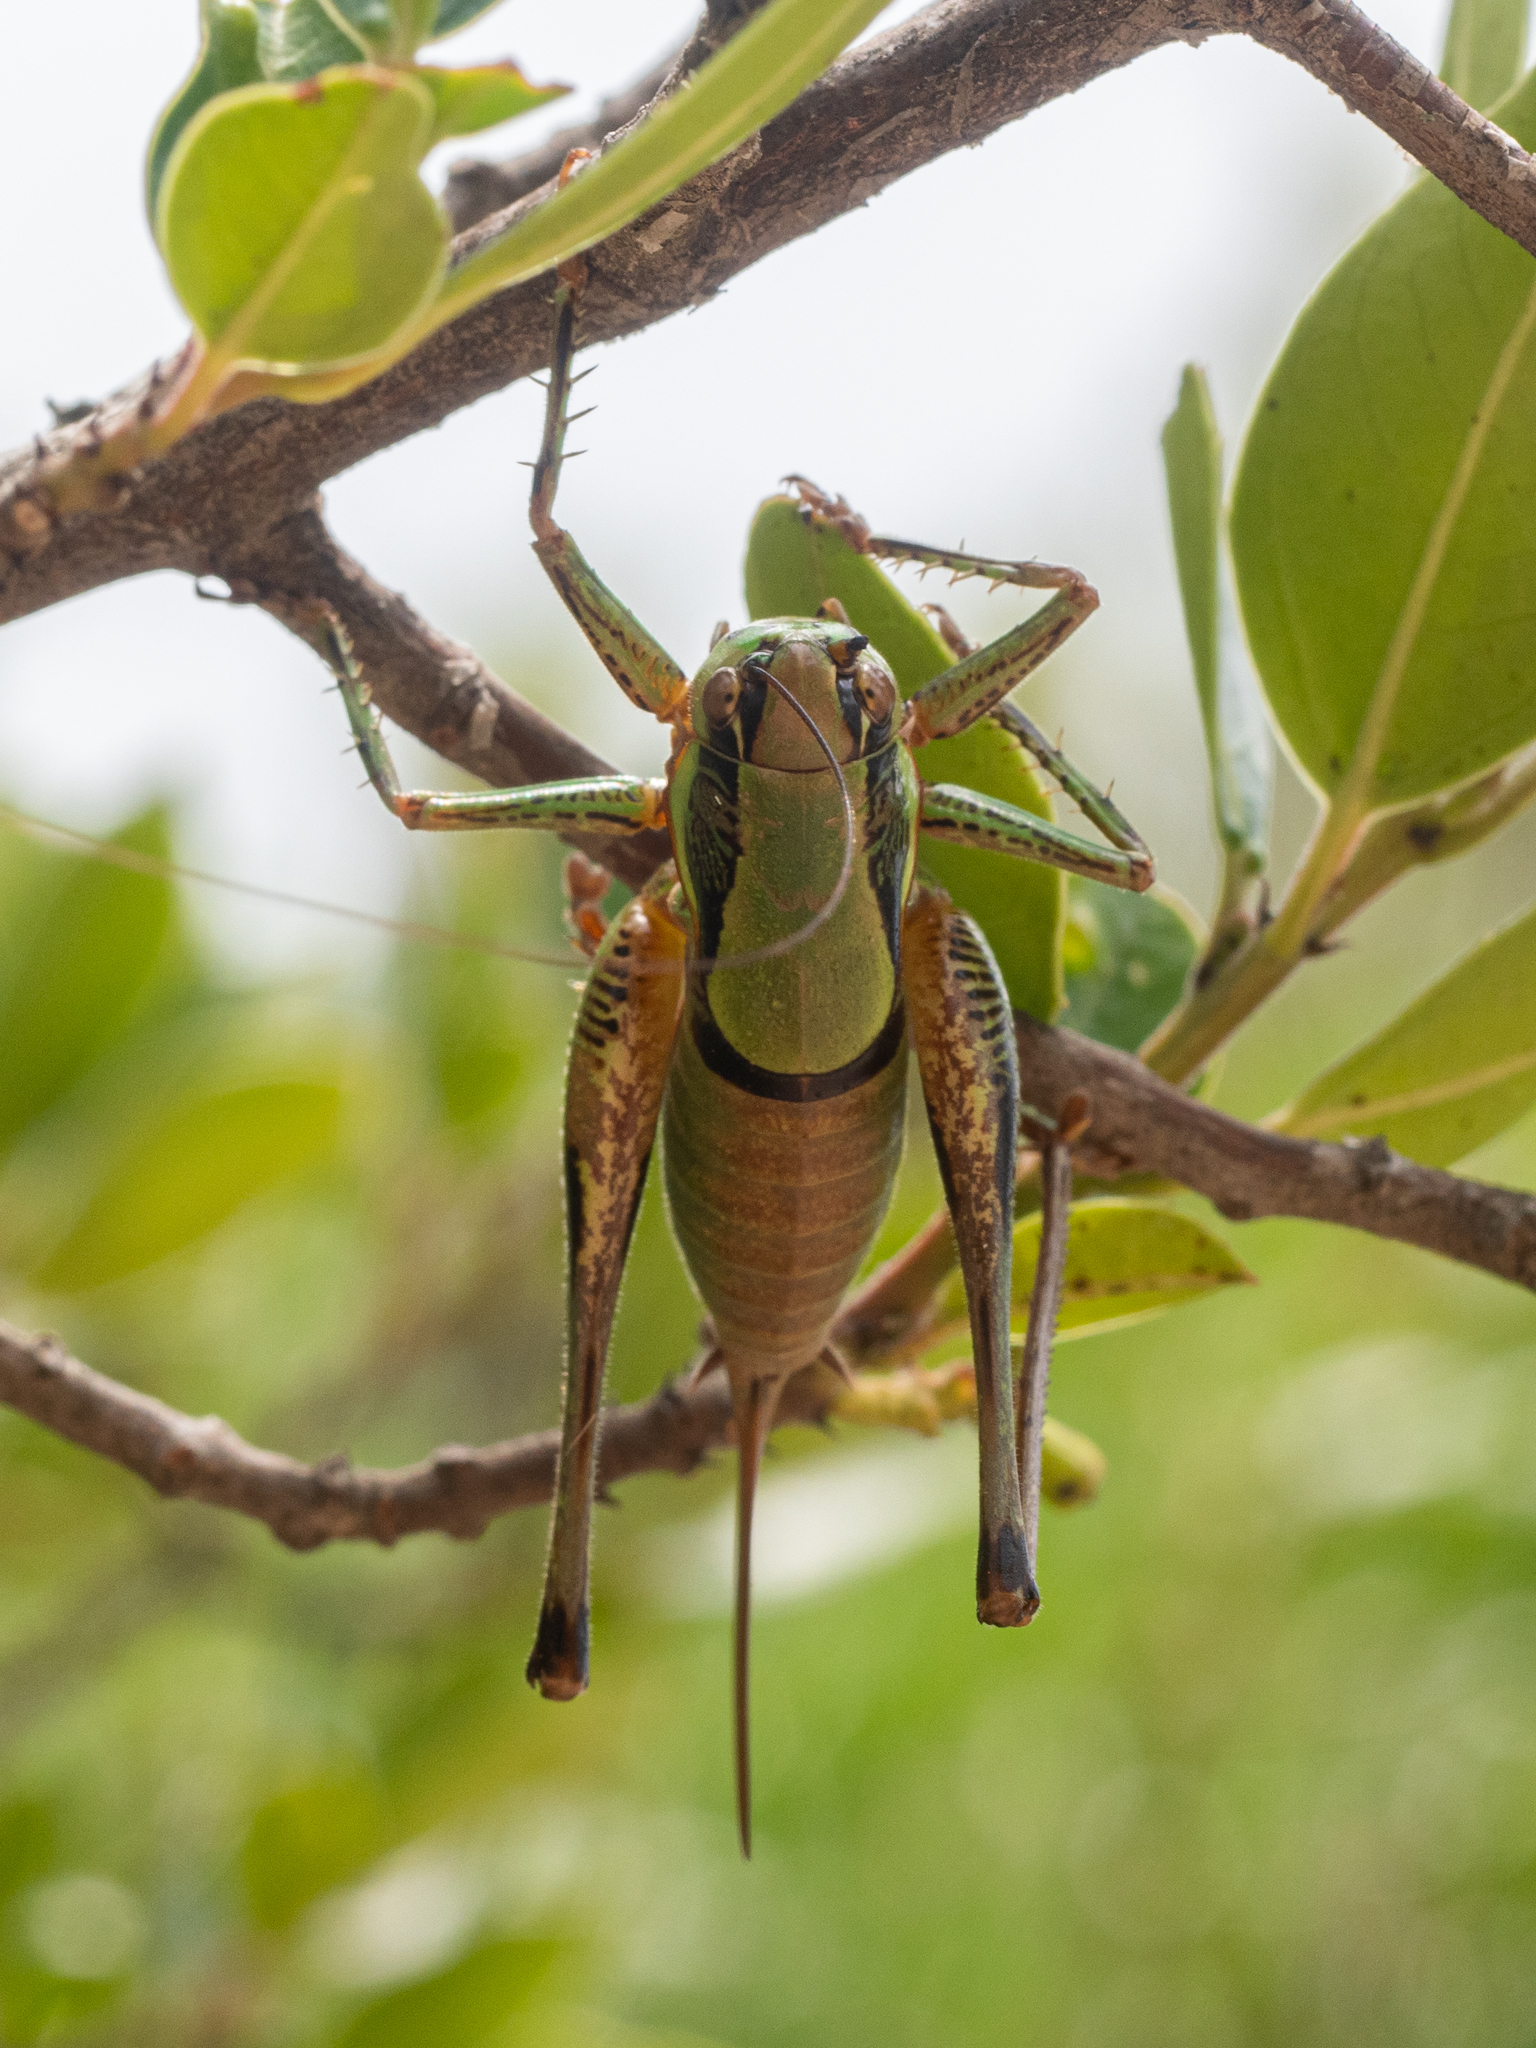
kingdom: Animalia
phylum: Arthropoda
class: Insecta
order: Orthoptera
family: Tettigoniidae
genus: Eupholidoptera
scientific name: Eupholidoptera schmidti
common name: Schmidt's marbled bush-cricket
